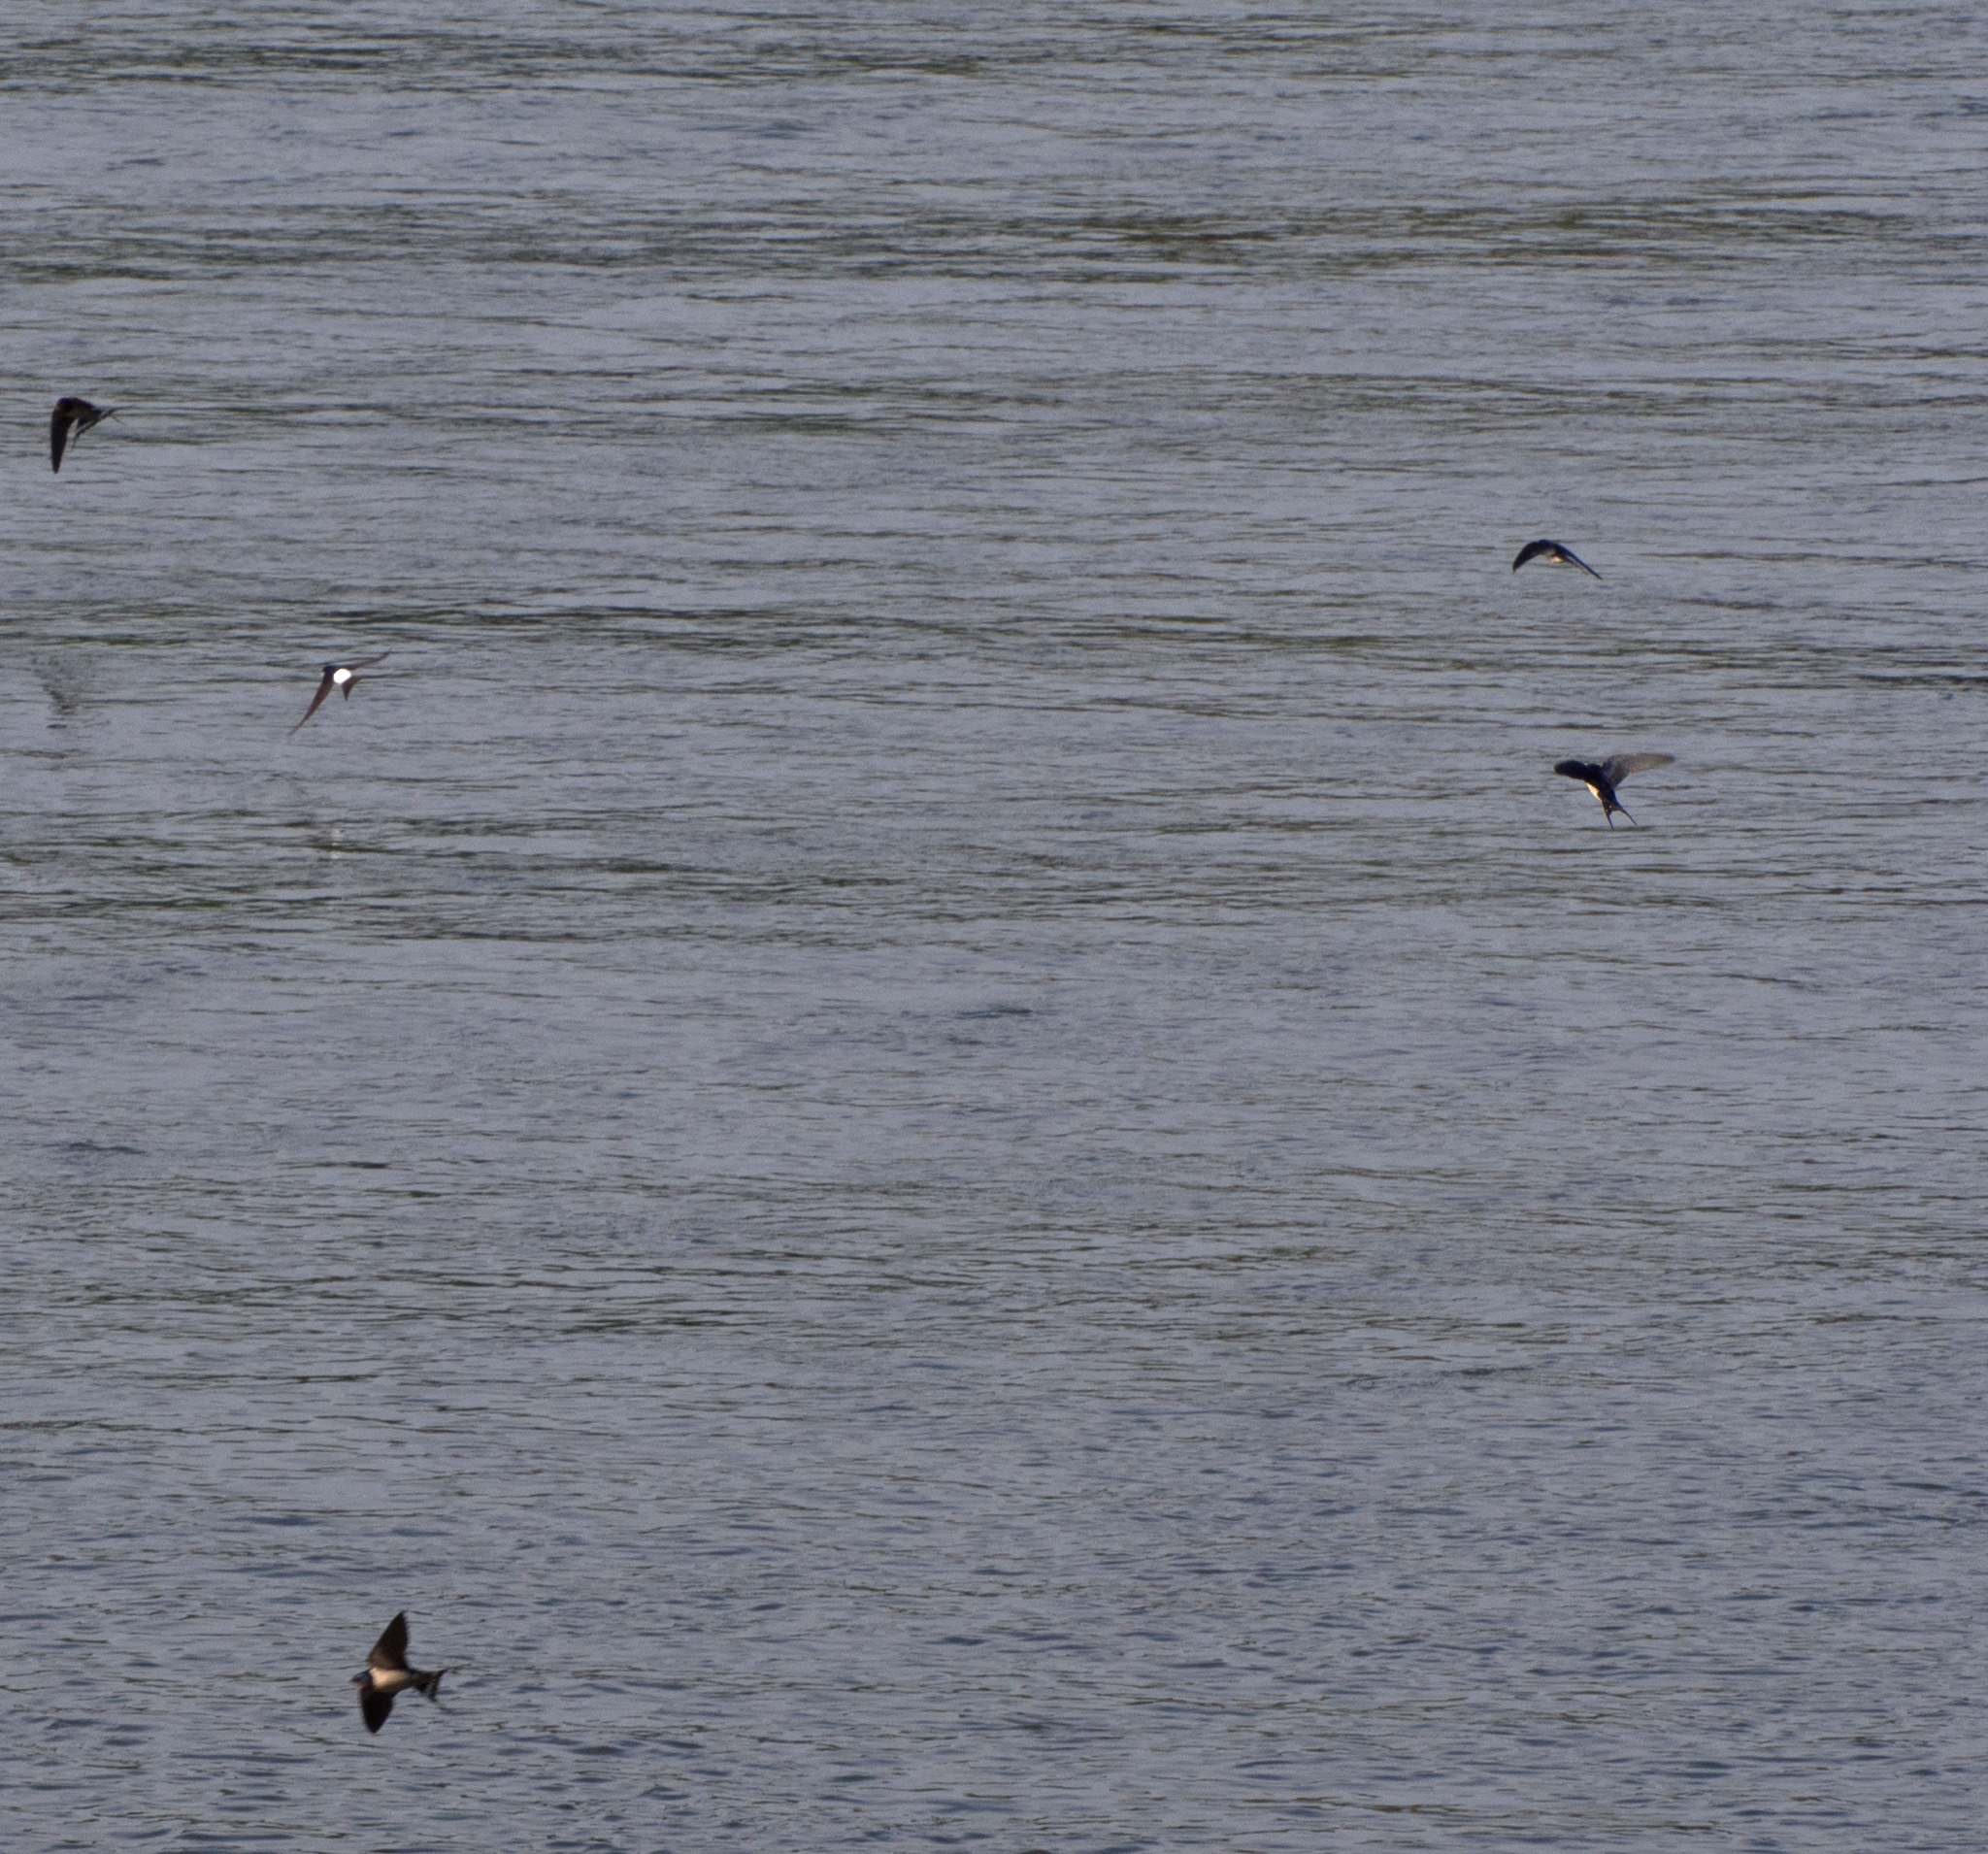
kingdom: Animalia
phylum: Chordata
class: Aves
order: Passeriformes
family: Hirundinidae
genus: Delichon
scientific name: Delichon urbicum
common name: Common house martin
